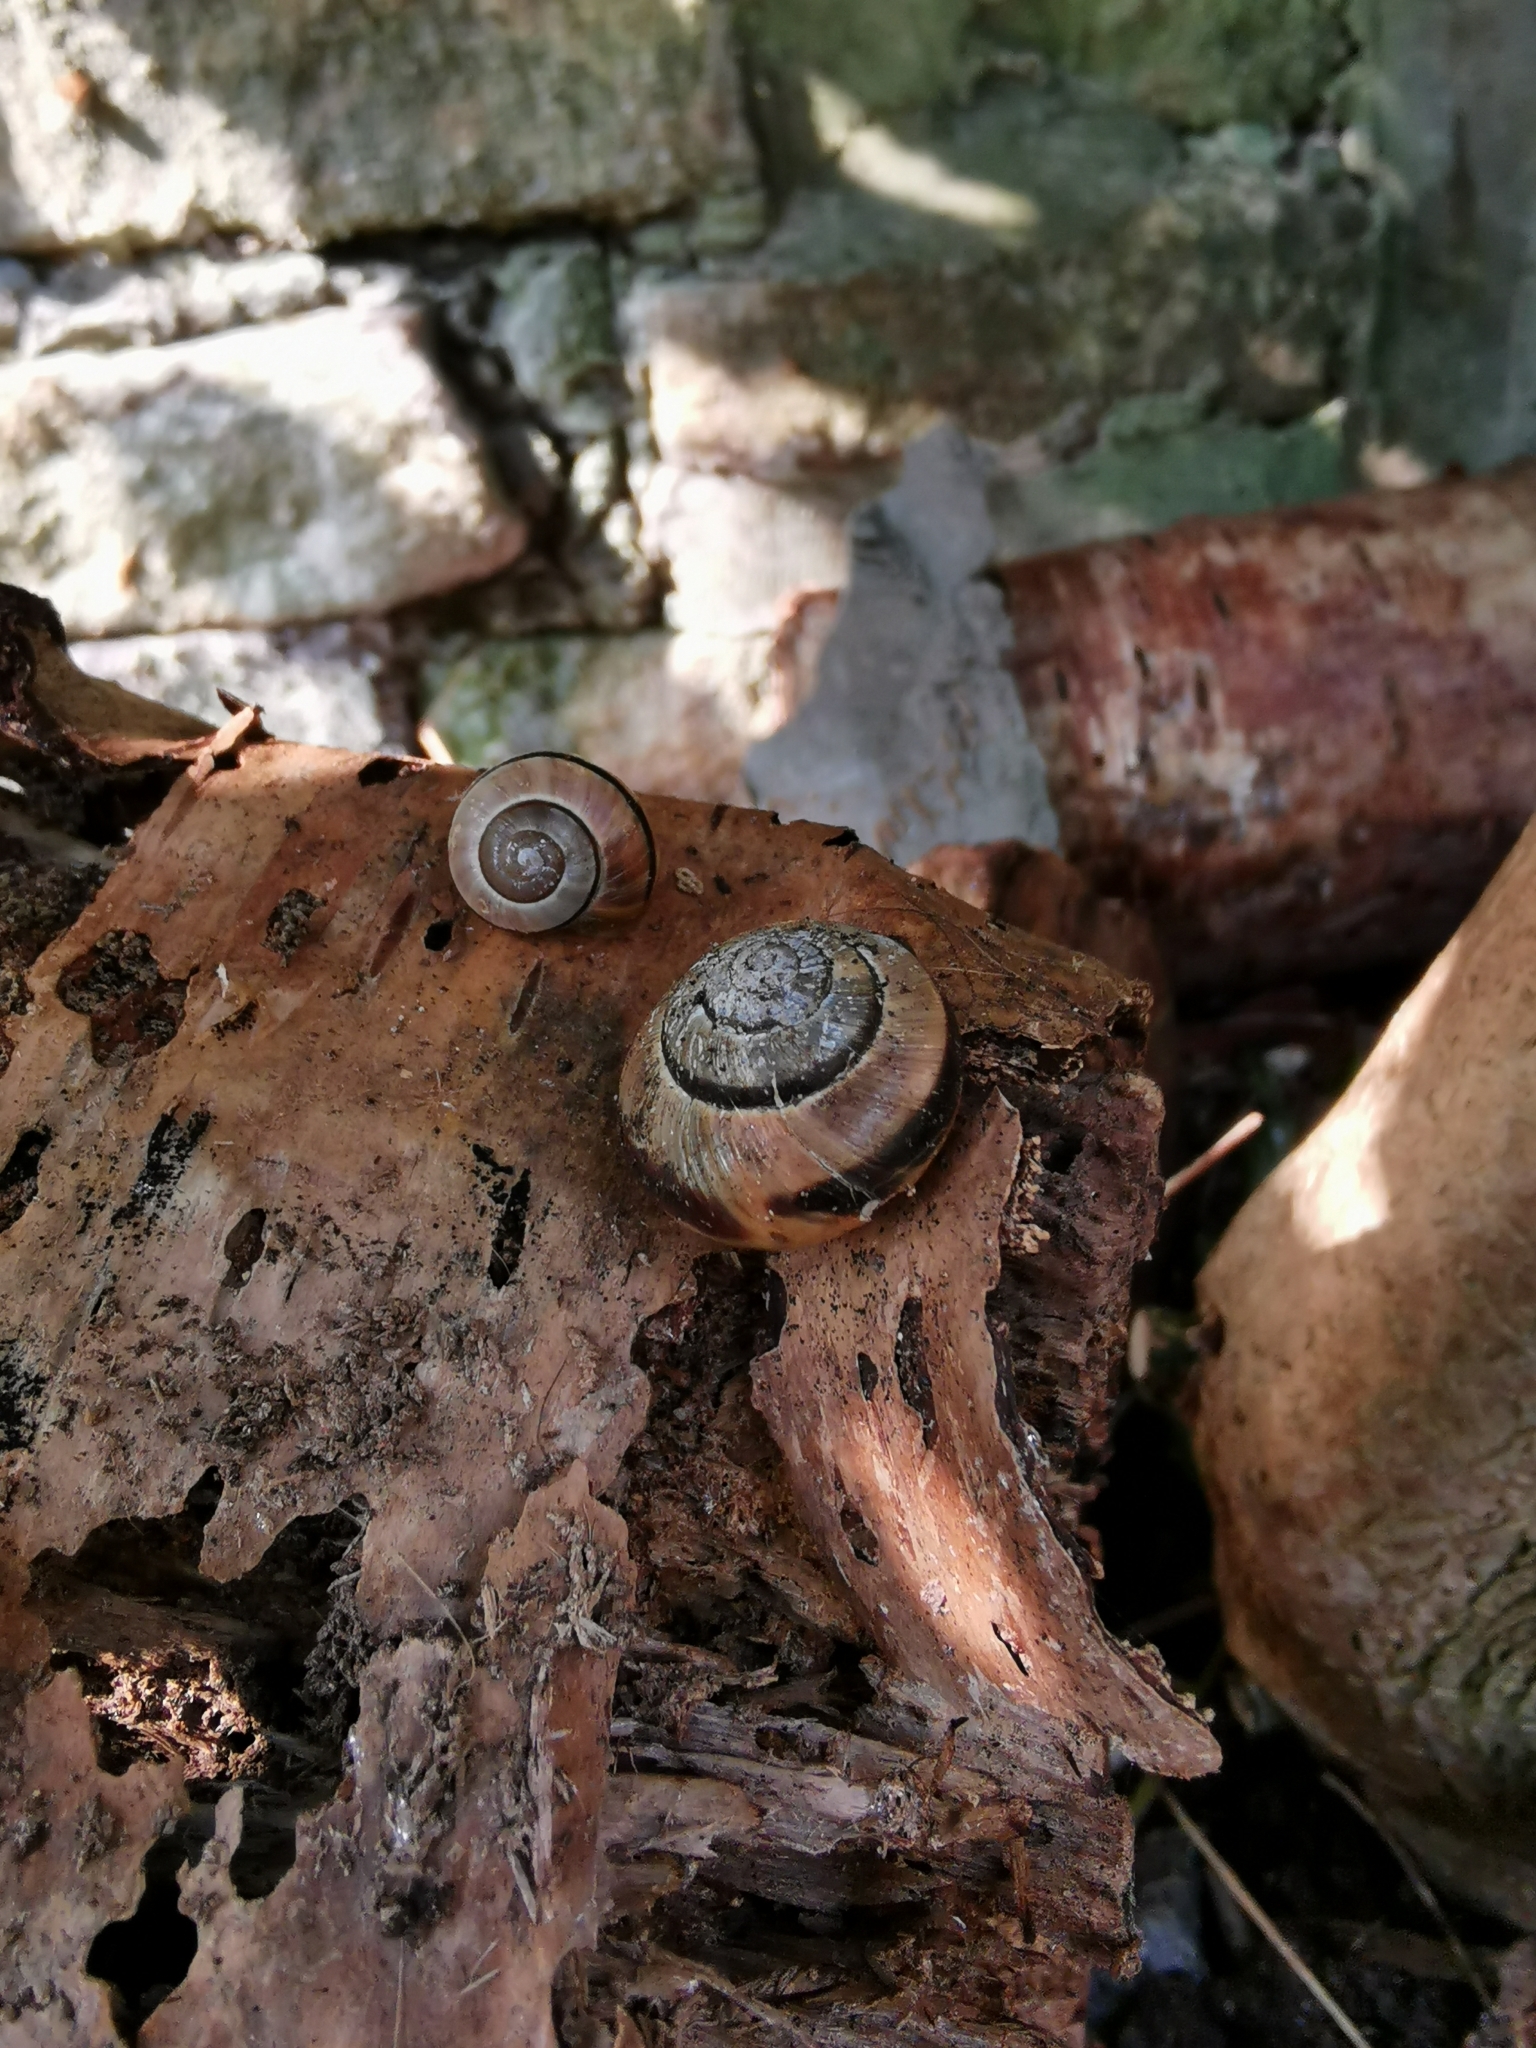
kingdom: Animalia
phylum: Mollusca
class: Gastropoda
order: Stylommatophora
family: Helicidae
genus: Cepaea
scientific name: Cepaea nemoralis
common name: Grovesnail
